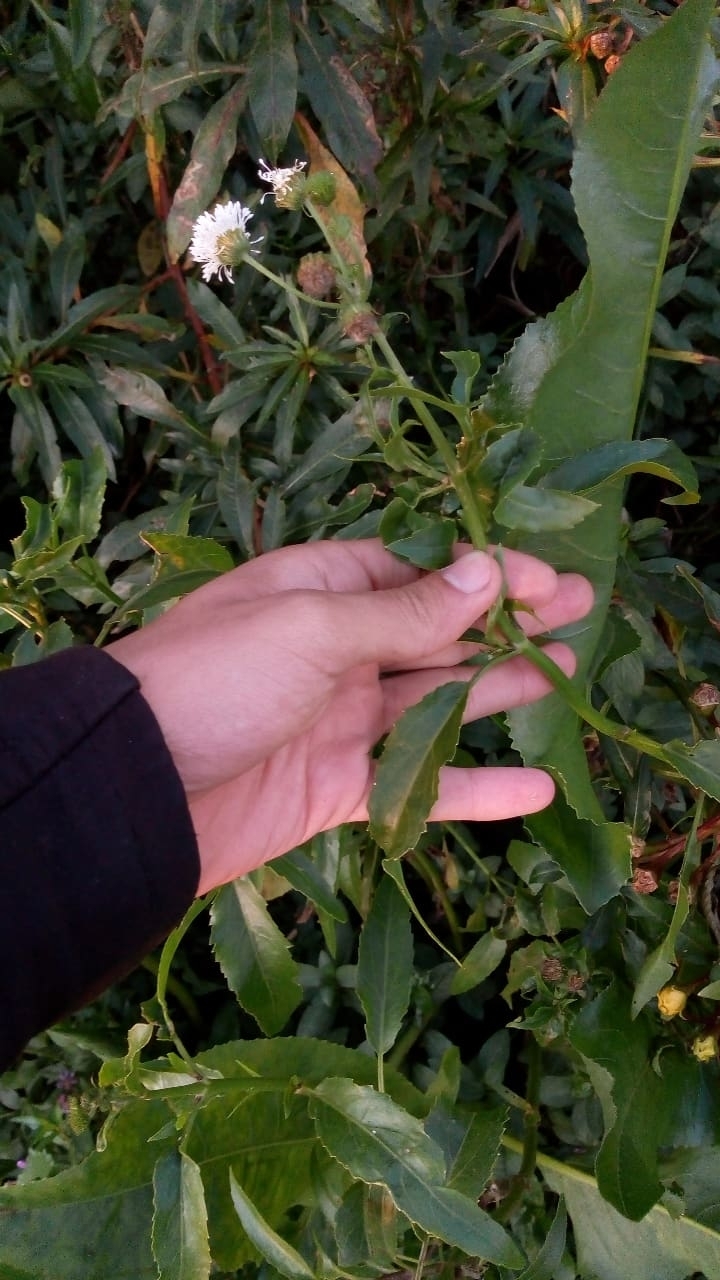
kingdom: Plantae
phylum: Tracheophyta
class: Magnoliopsida
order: Asterales
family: Asteraceae
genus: Gymnocoronis
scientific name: Gymnocoronis spilanthoides
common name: Senegal teaplant
